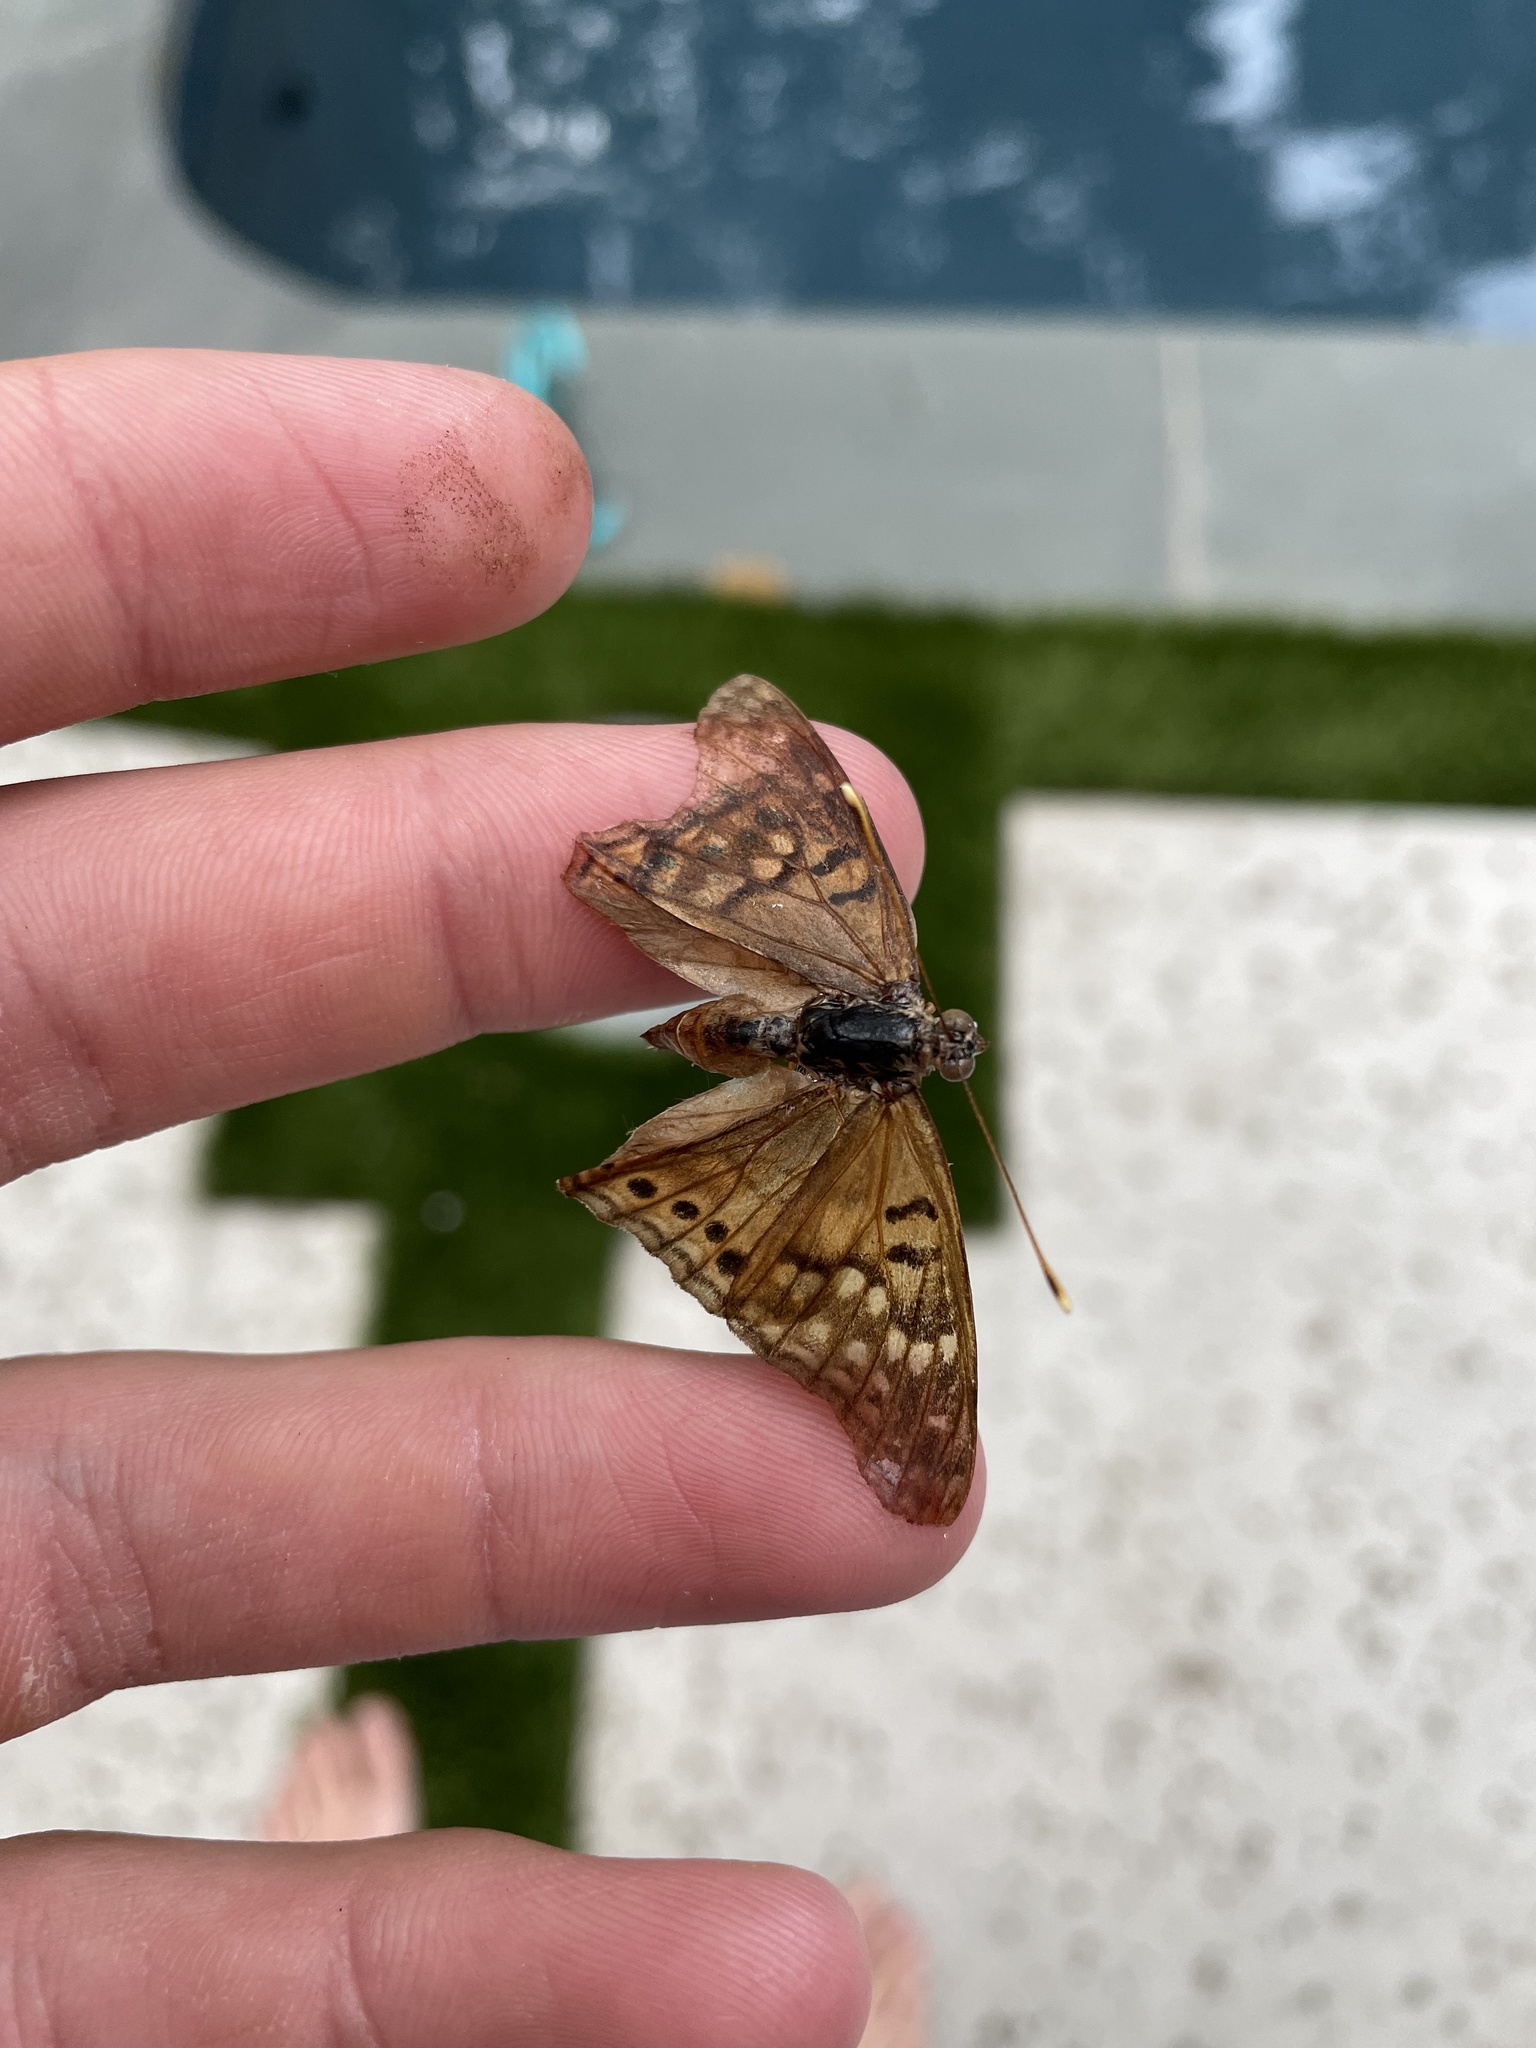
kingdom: Animalia
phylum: Arthropoda
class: Insecta
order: Lepidoptera
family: Nymphalidae
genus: Asterocampa
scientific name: Asterocampa celtis
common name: Hackberry emperor
